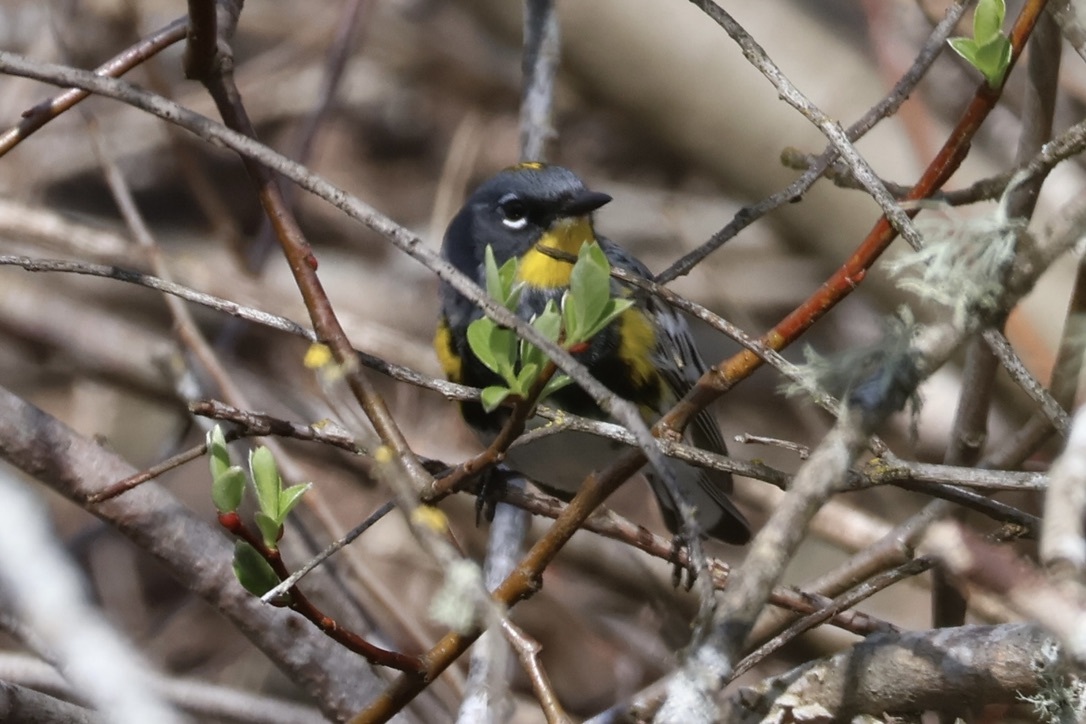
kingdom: Animalia
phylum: Chordata
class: Aves
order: Passeriformes
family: Parulidae
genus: Setophaga
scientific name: Setophaga auduboni
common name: Audubon's warbler
